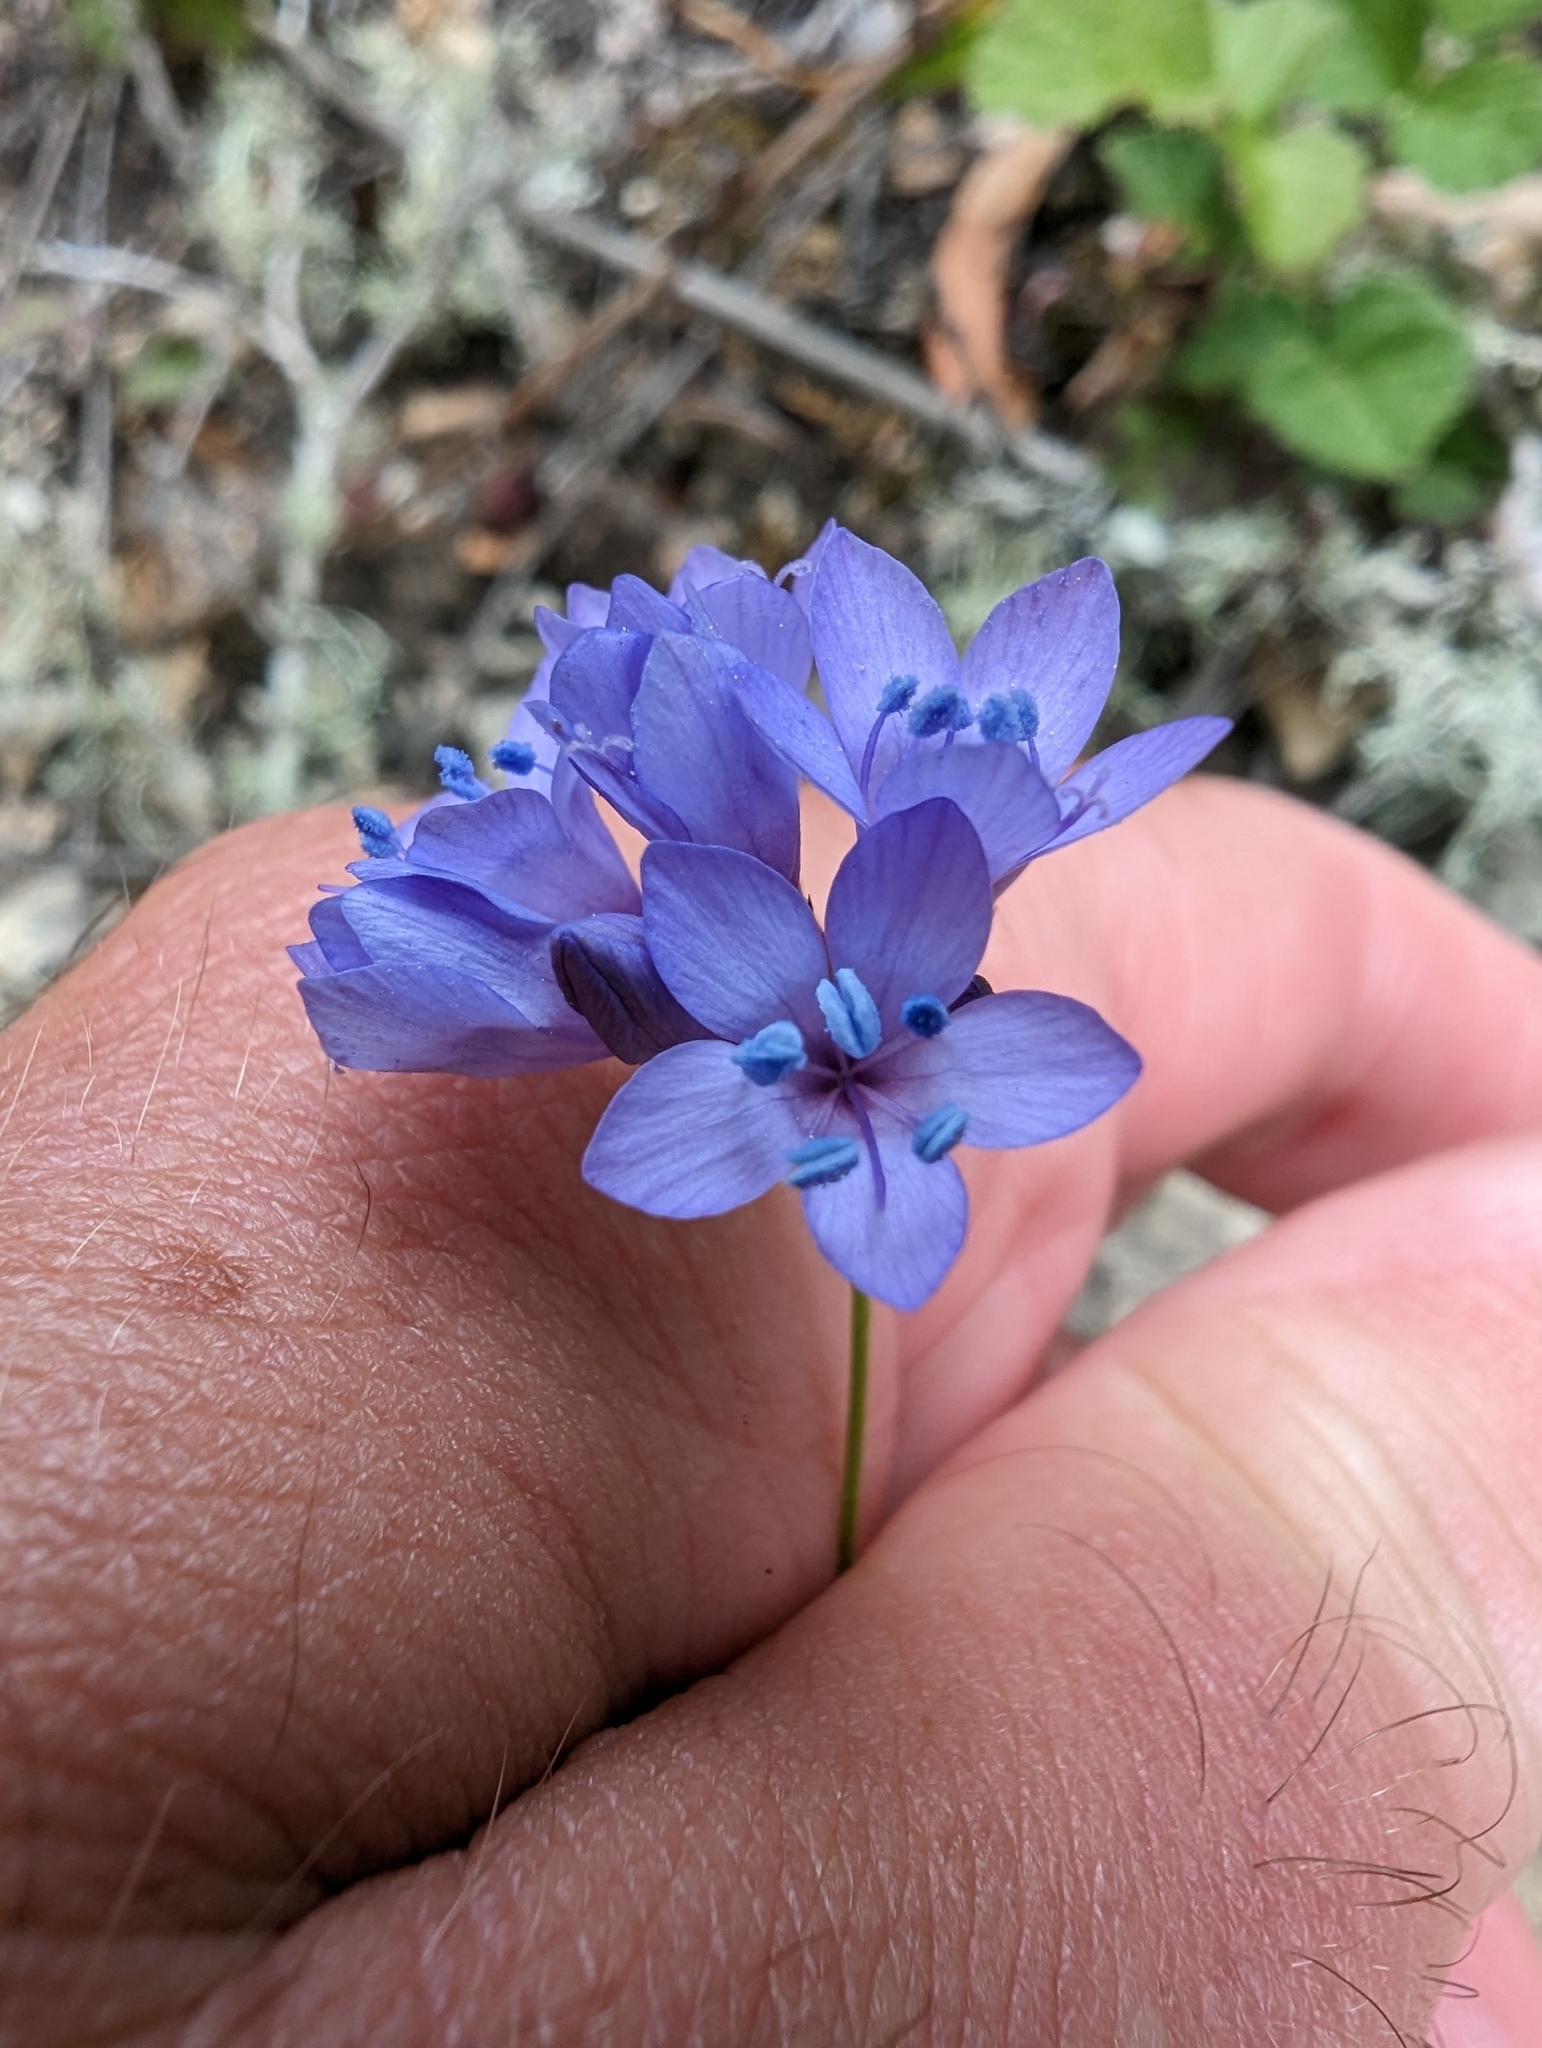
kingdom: Plantae
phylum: Tracheophyta
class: Magnoliopsida
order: Ericales
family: Polemoniaceae
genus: Gilia
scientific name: Gilia achilleifolia
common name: California gily-flower
